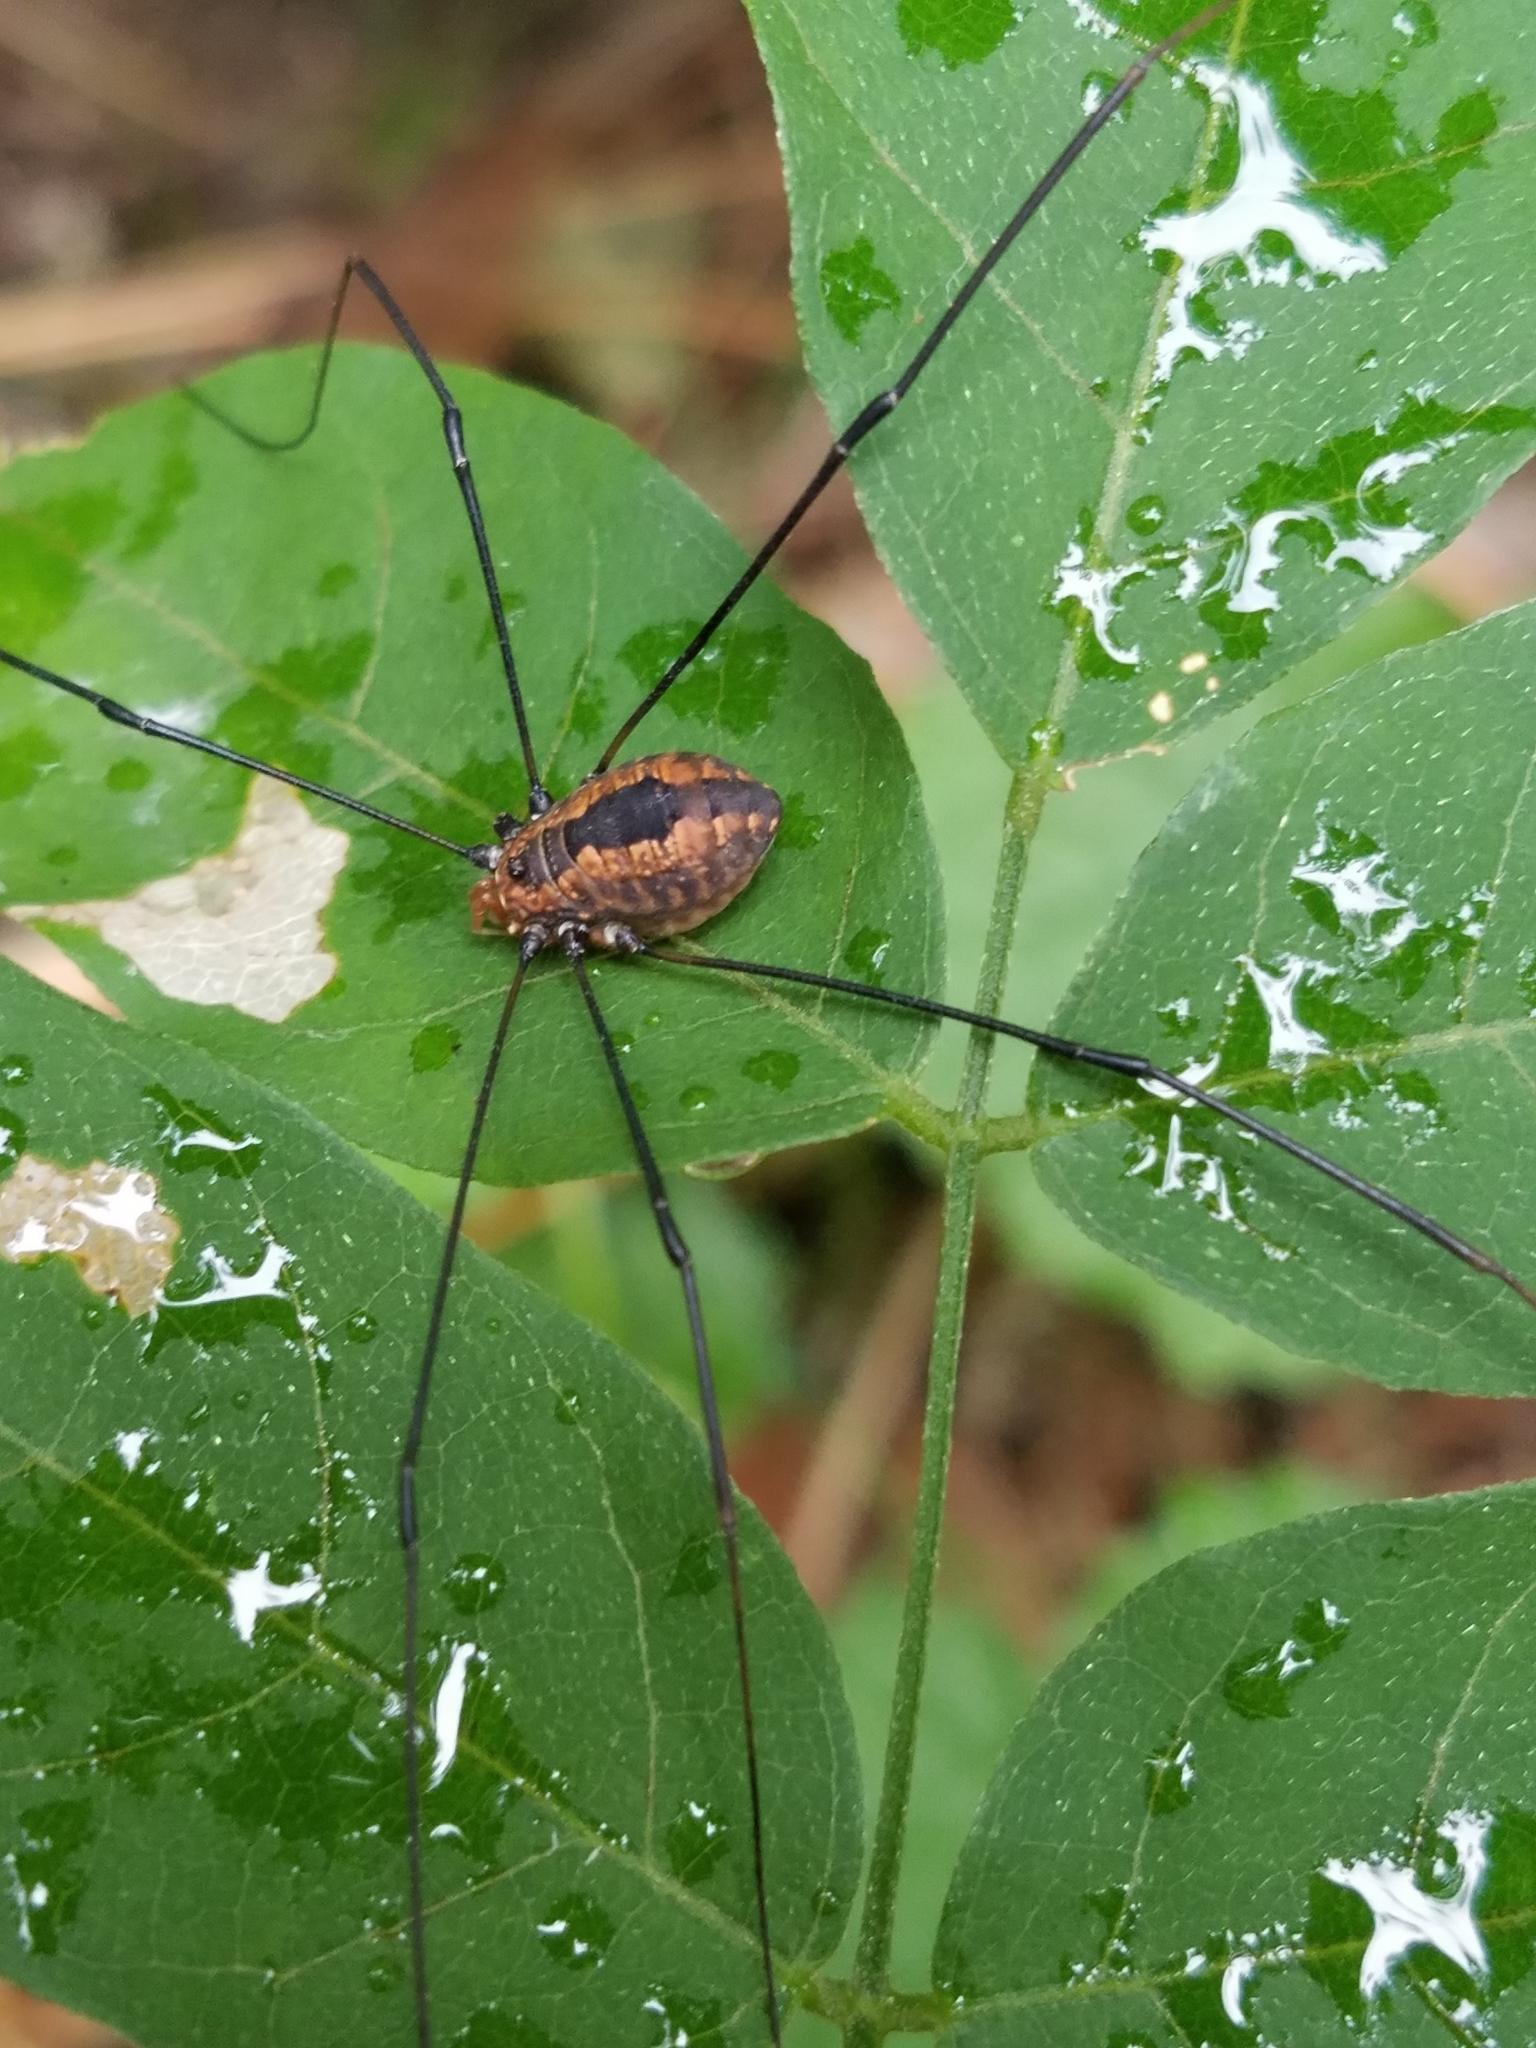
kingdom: Animalia
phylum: Arthropoda
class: Arachnida
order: Opiliones
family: Sclerosomatidae
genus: Leiobunum
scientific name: Leiobunum vittatum
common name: Eastern harvestman
